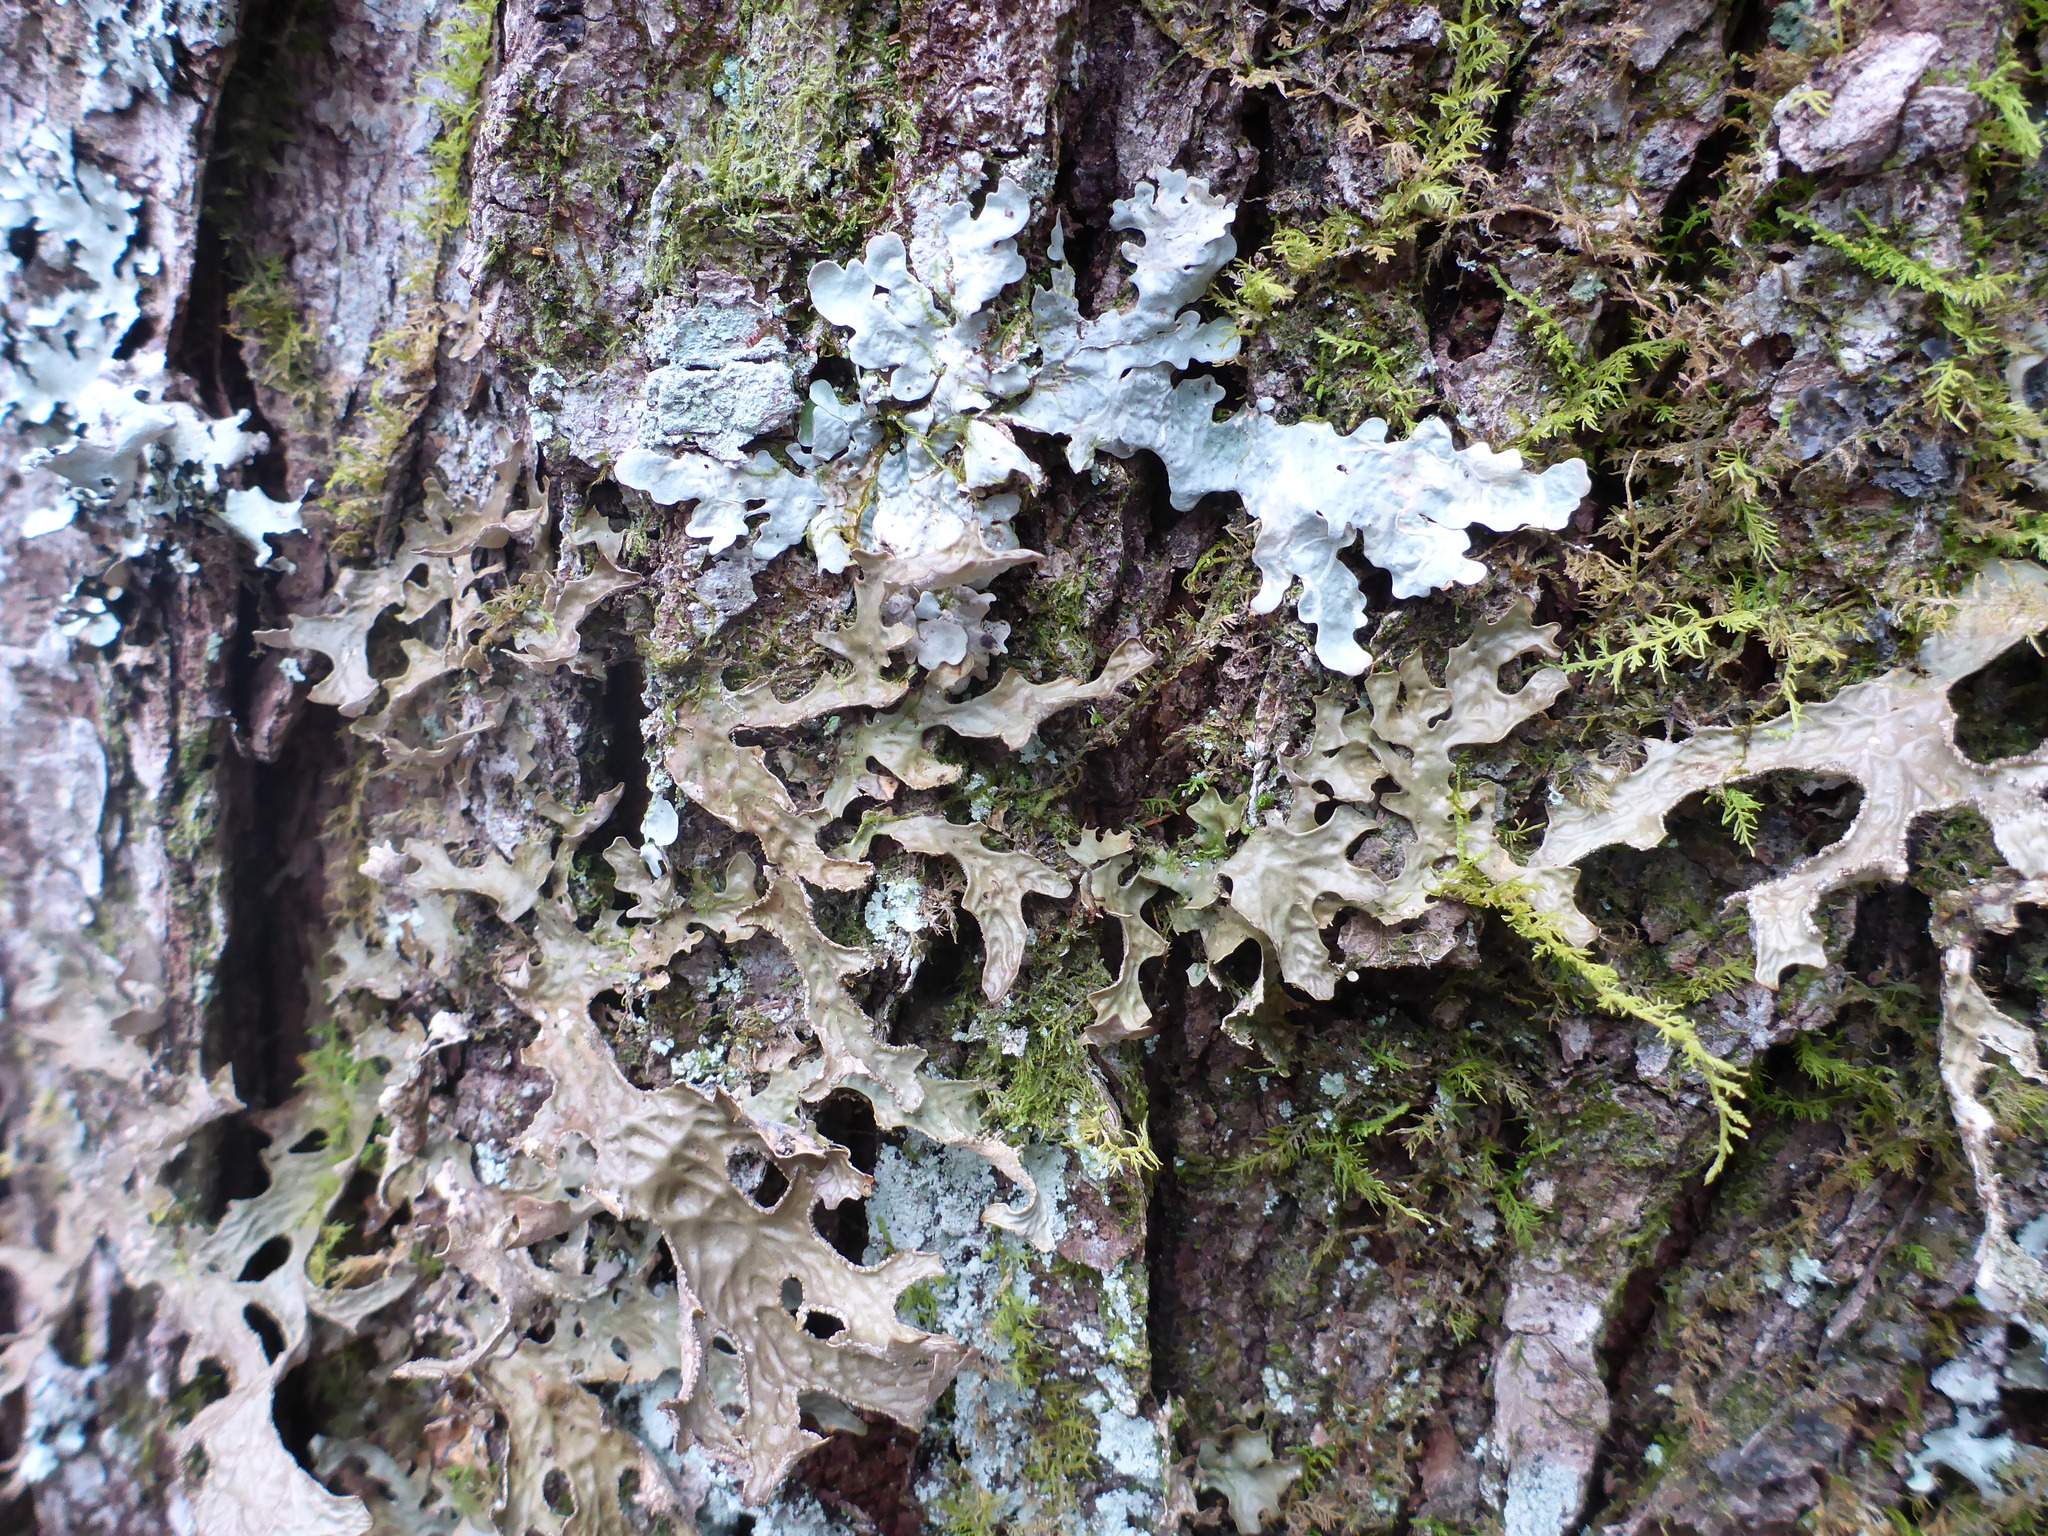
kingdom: Fungi
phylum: Ascomycota
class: Lecanoromycetes
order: Peltigerales
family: Lobariaceae
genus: Lobaria
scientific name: Lobaria pulmonaria
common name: Lungwort
